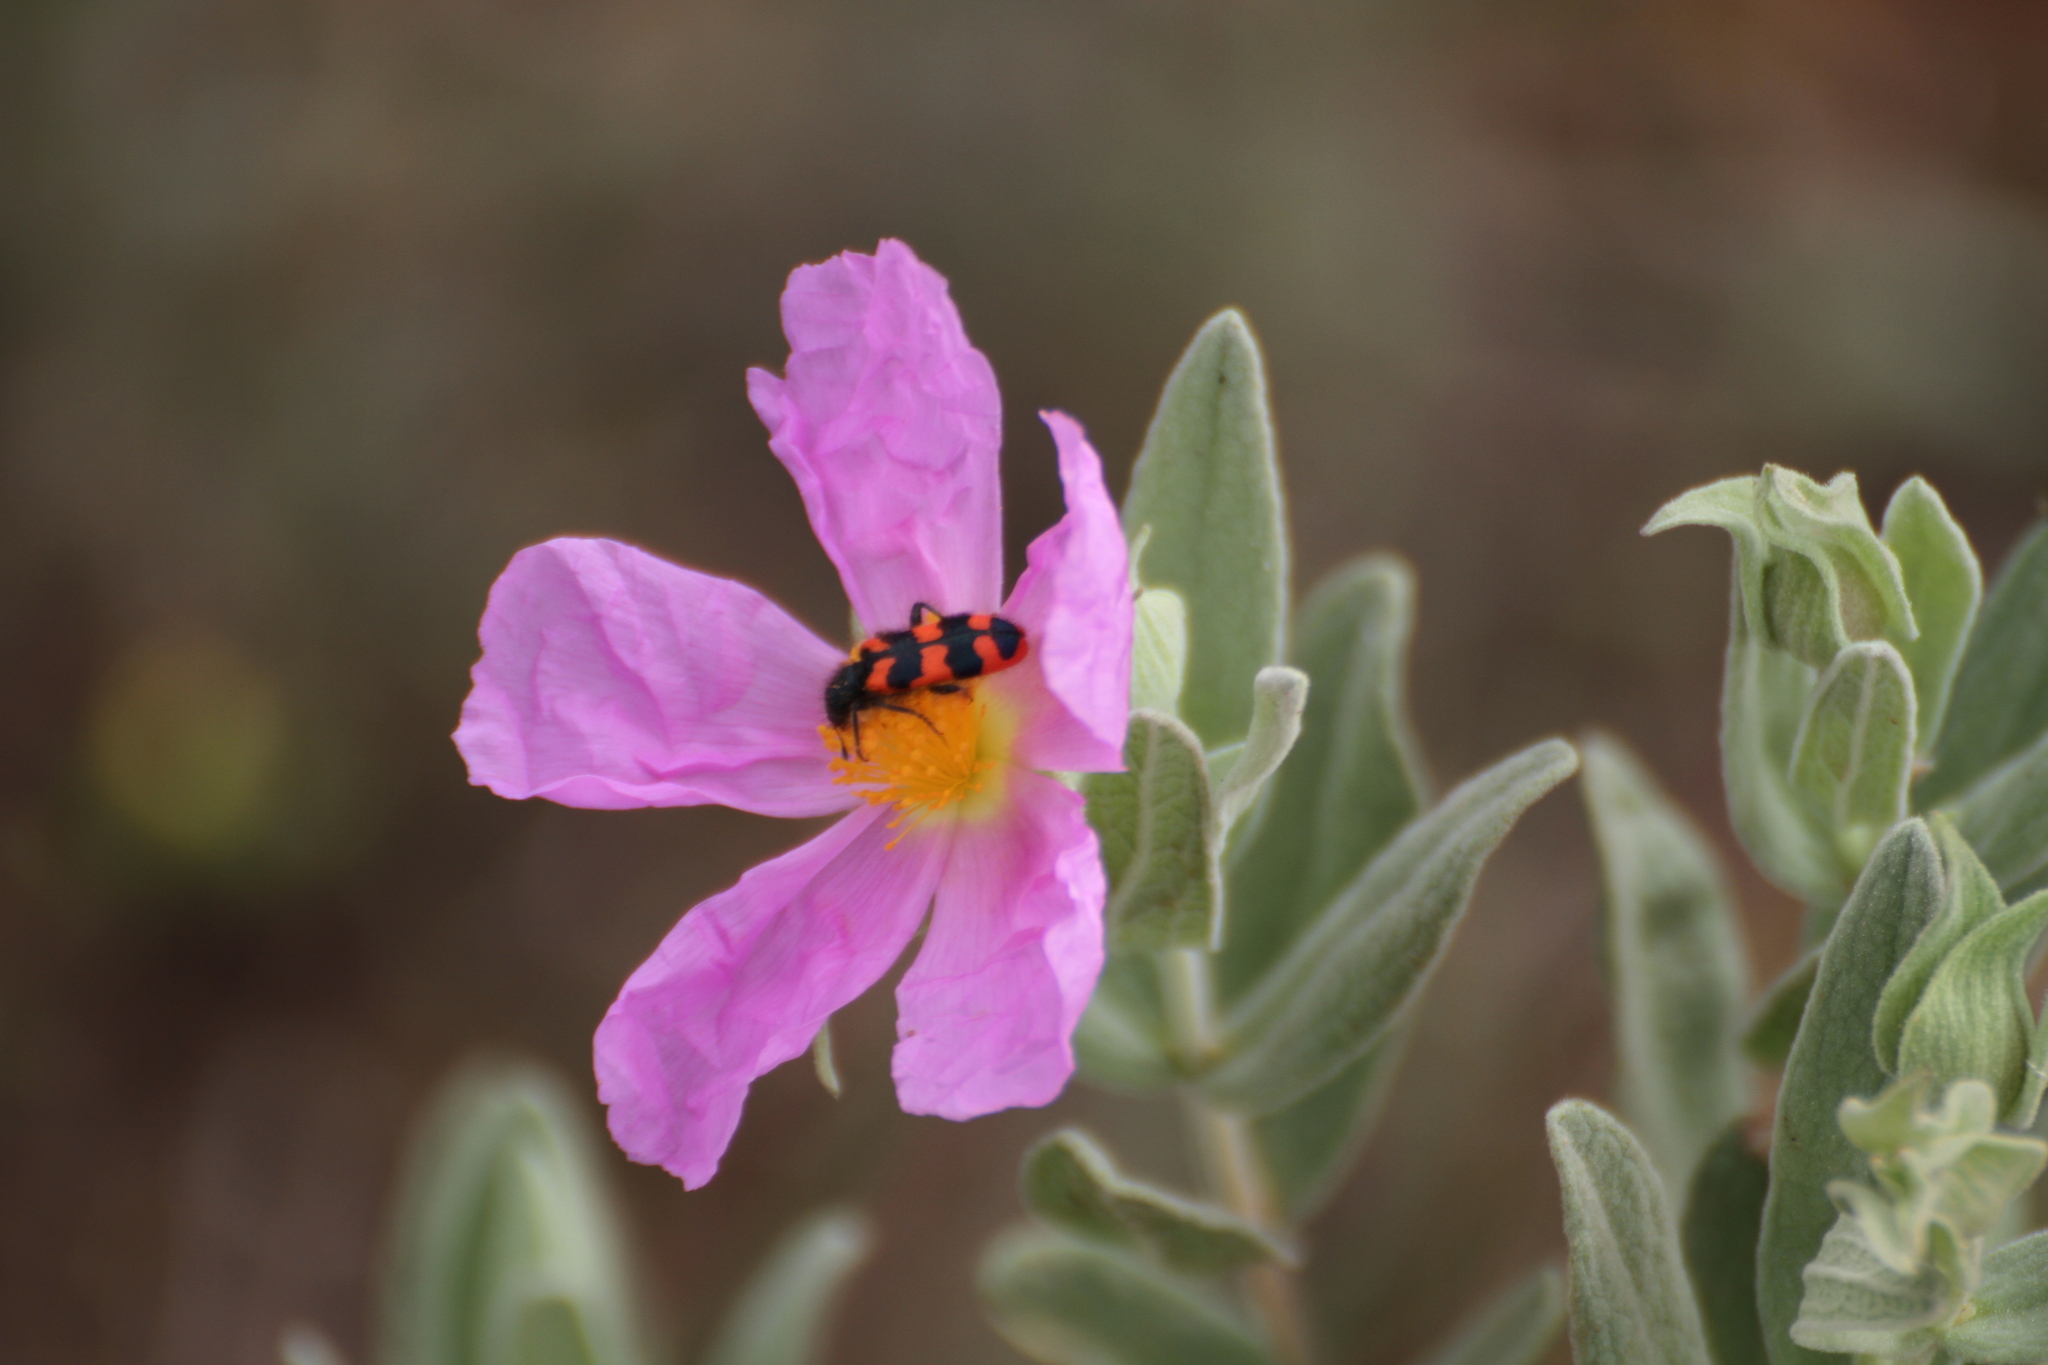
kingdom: Animalia
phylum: Arthropoda
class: Insecta
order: Coleoptera
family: Cleridae
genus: Trichodes
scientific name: Trichodes alvearius
